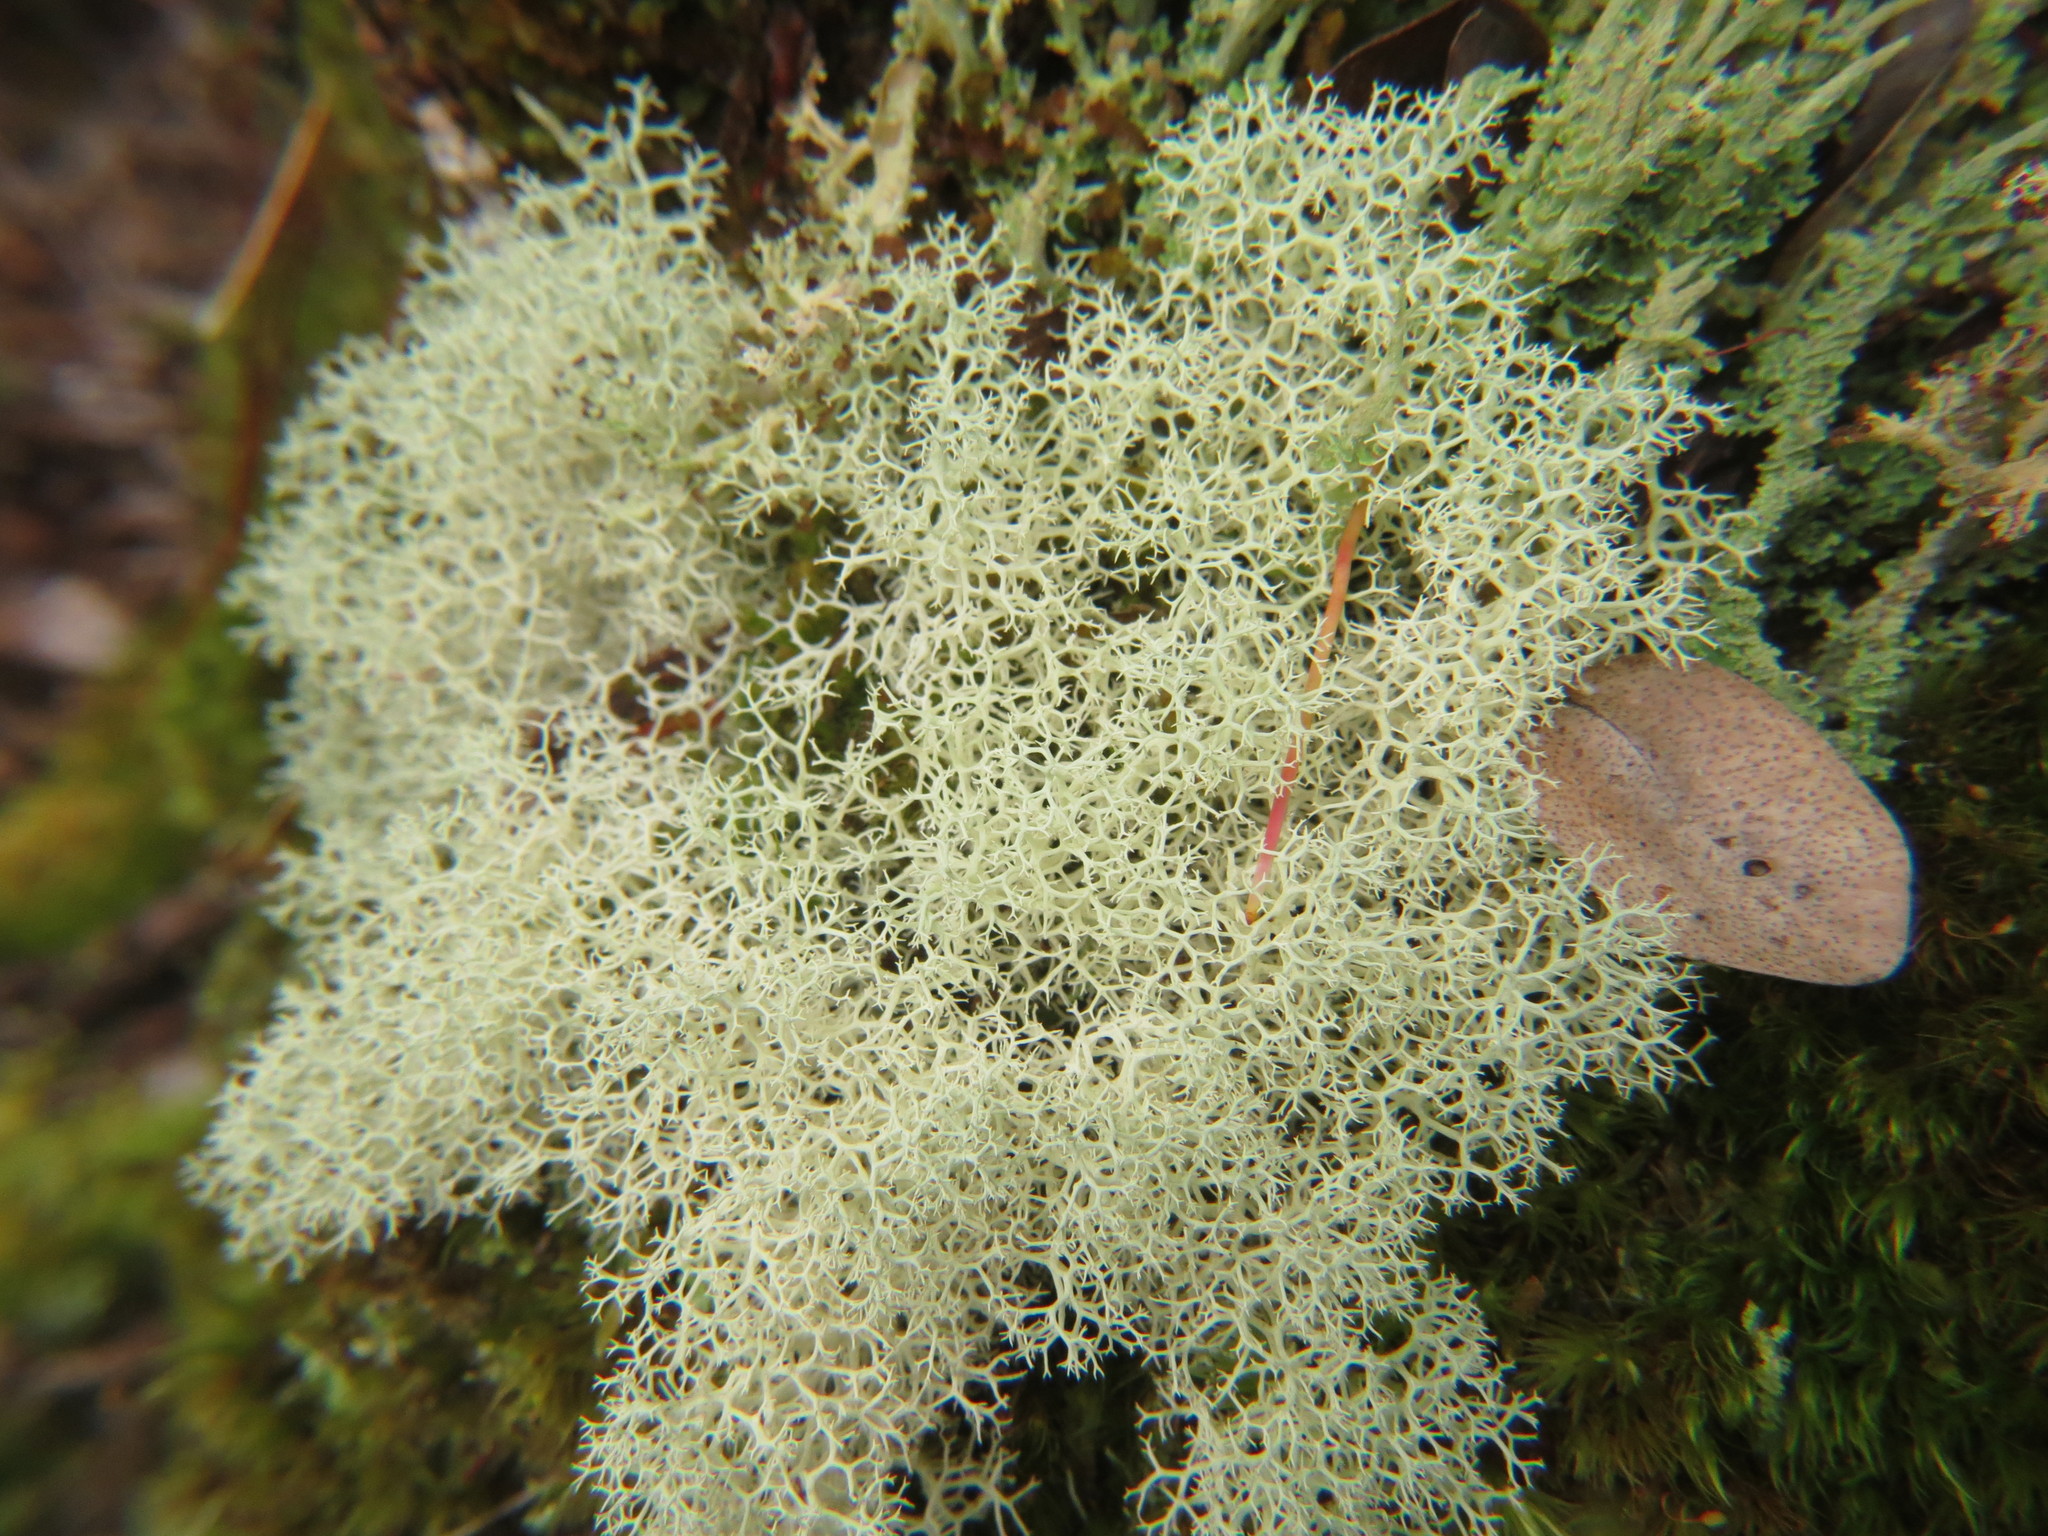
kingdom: Fungi
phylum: Ascomycota
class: Lecanoromycetes
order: Lecanorales
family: Cladoniaceae
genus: Cladonia
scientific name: Cladonia confusa
